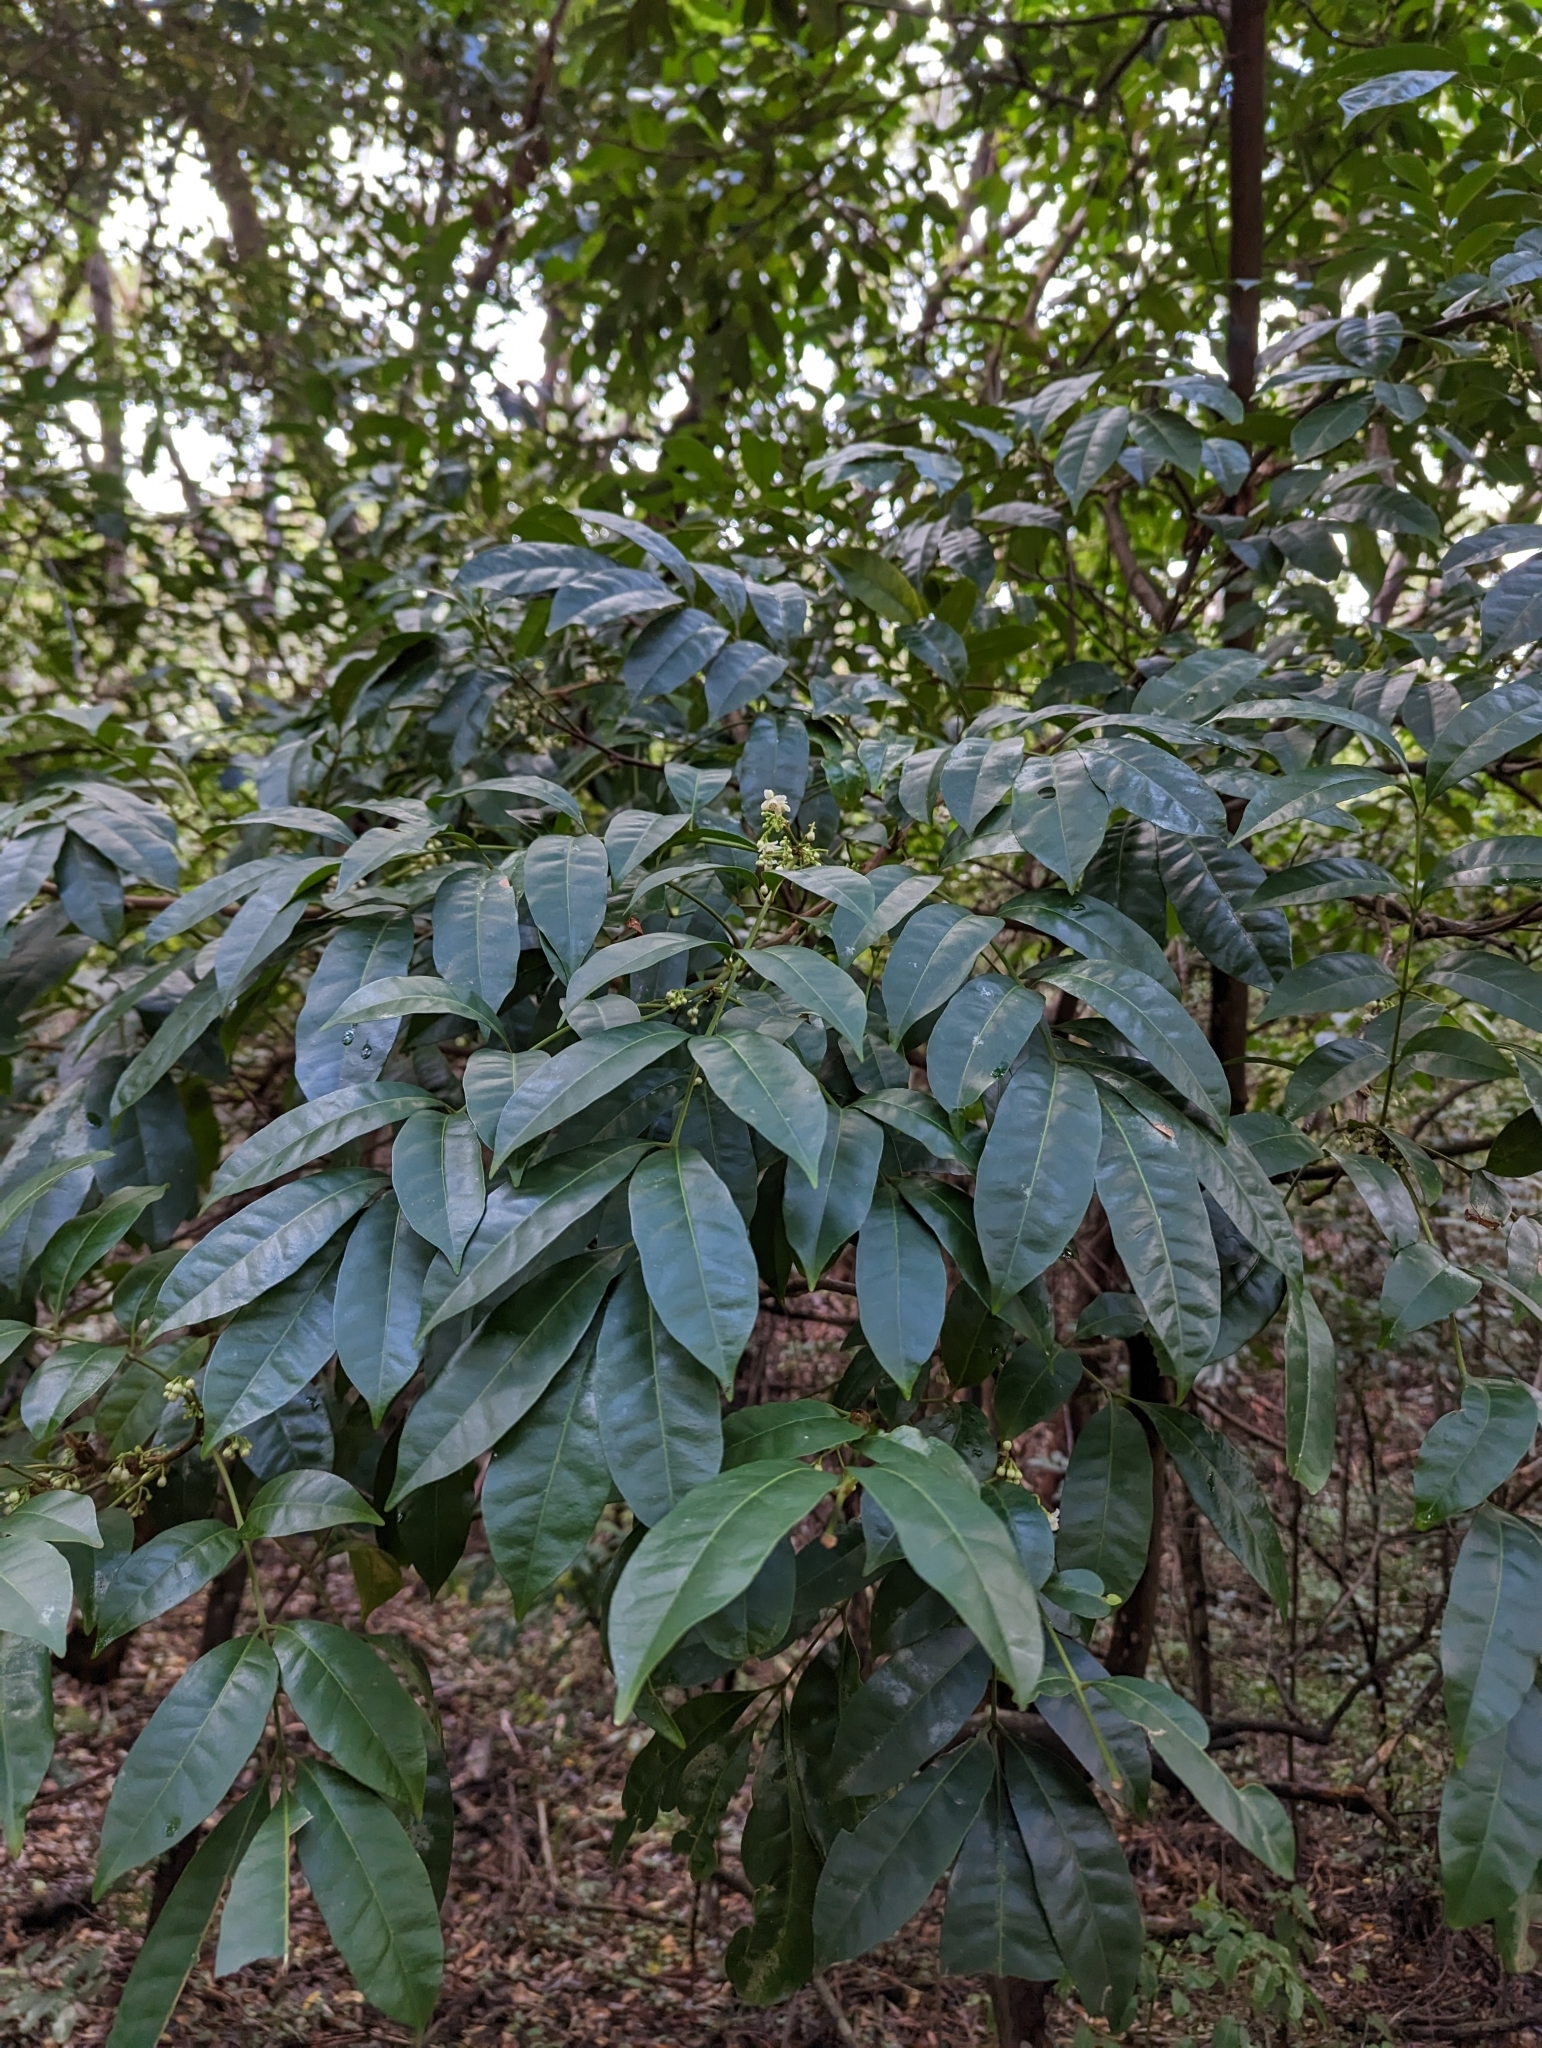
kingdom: Plantae
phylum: Tracheophyta
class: Magnoliopsida
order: Sapindales
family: Meliaceae
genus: Synoum
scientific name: Synoum glandulosum
